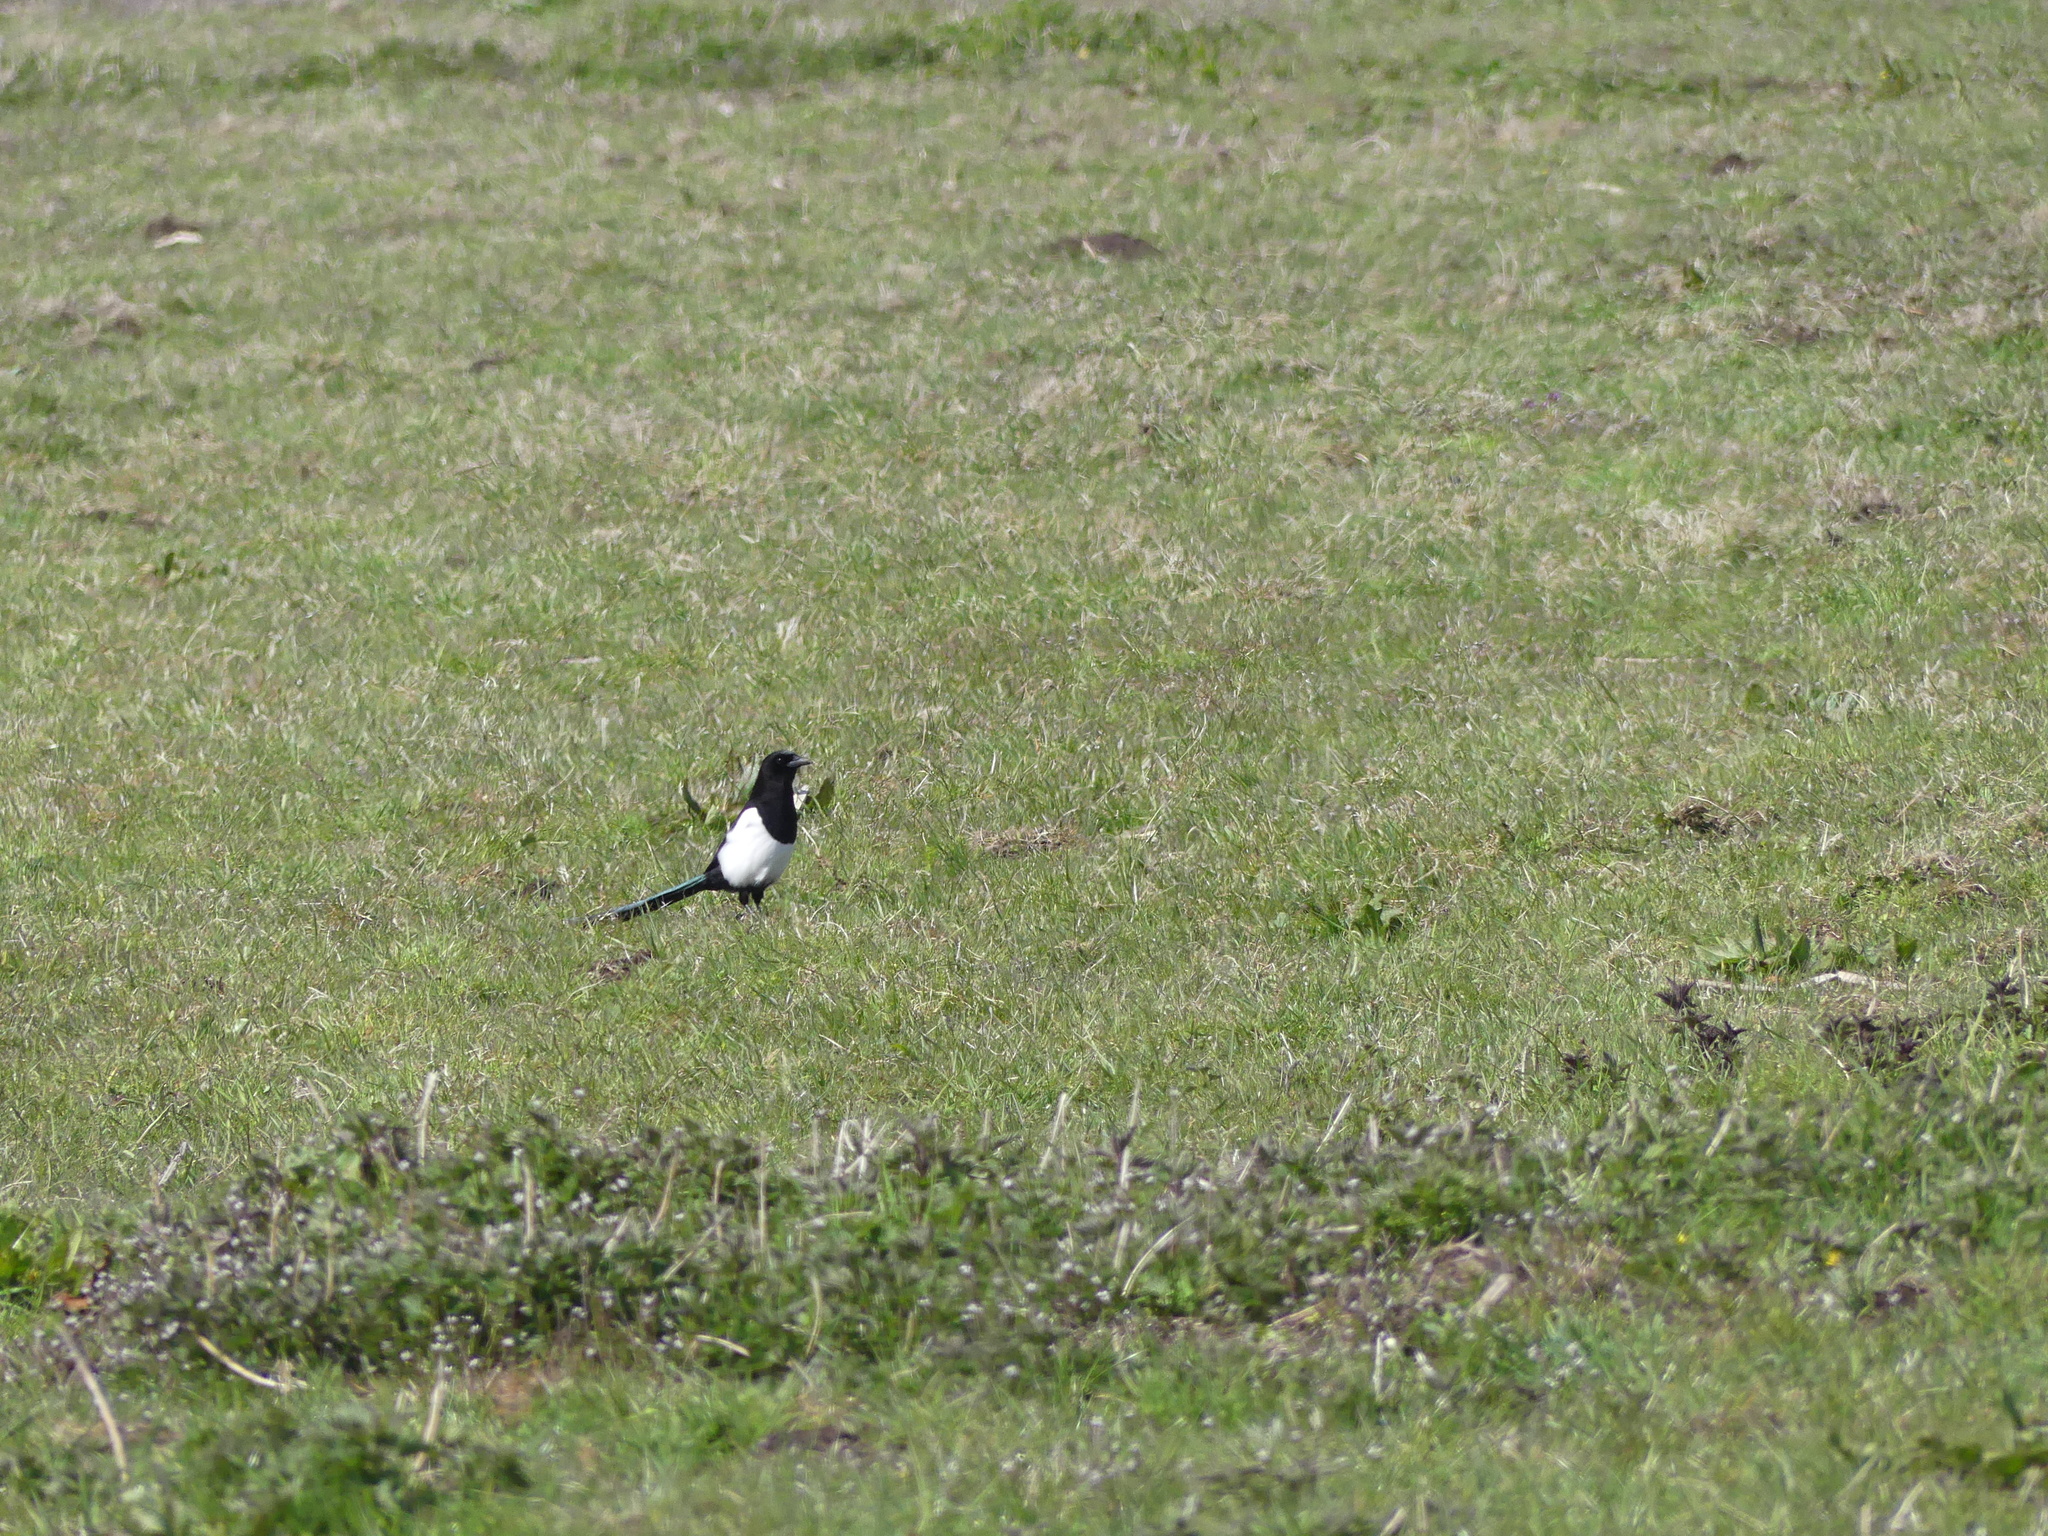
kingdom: Animalia
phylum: Chordata
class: Aves
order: Passeriformes
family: Corvidae
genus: Pica
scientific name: Pica pica
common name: Eurasian magpie
